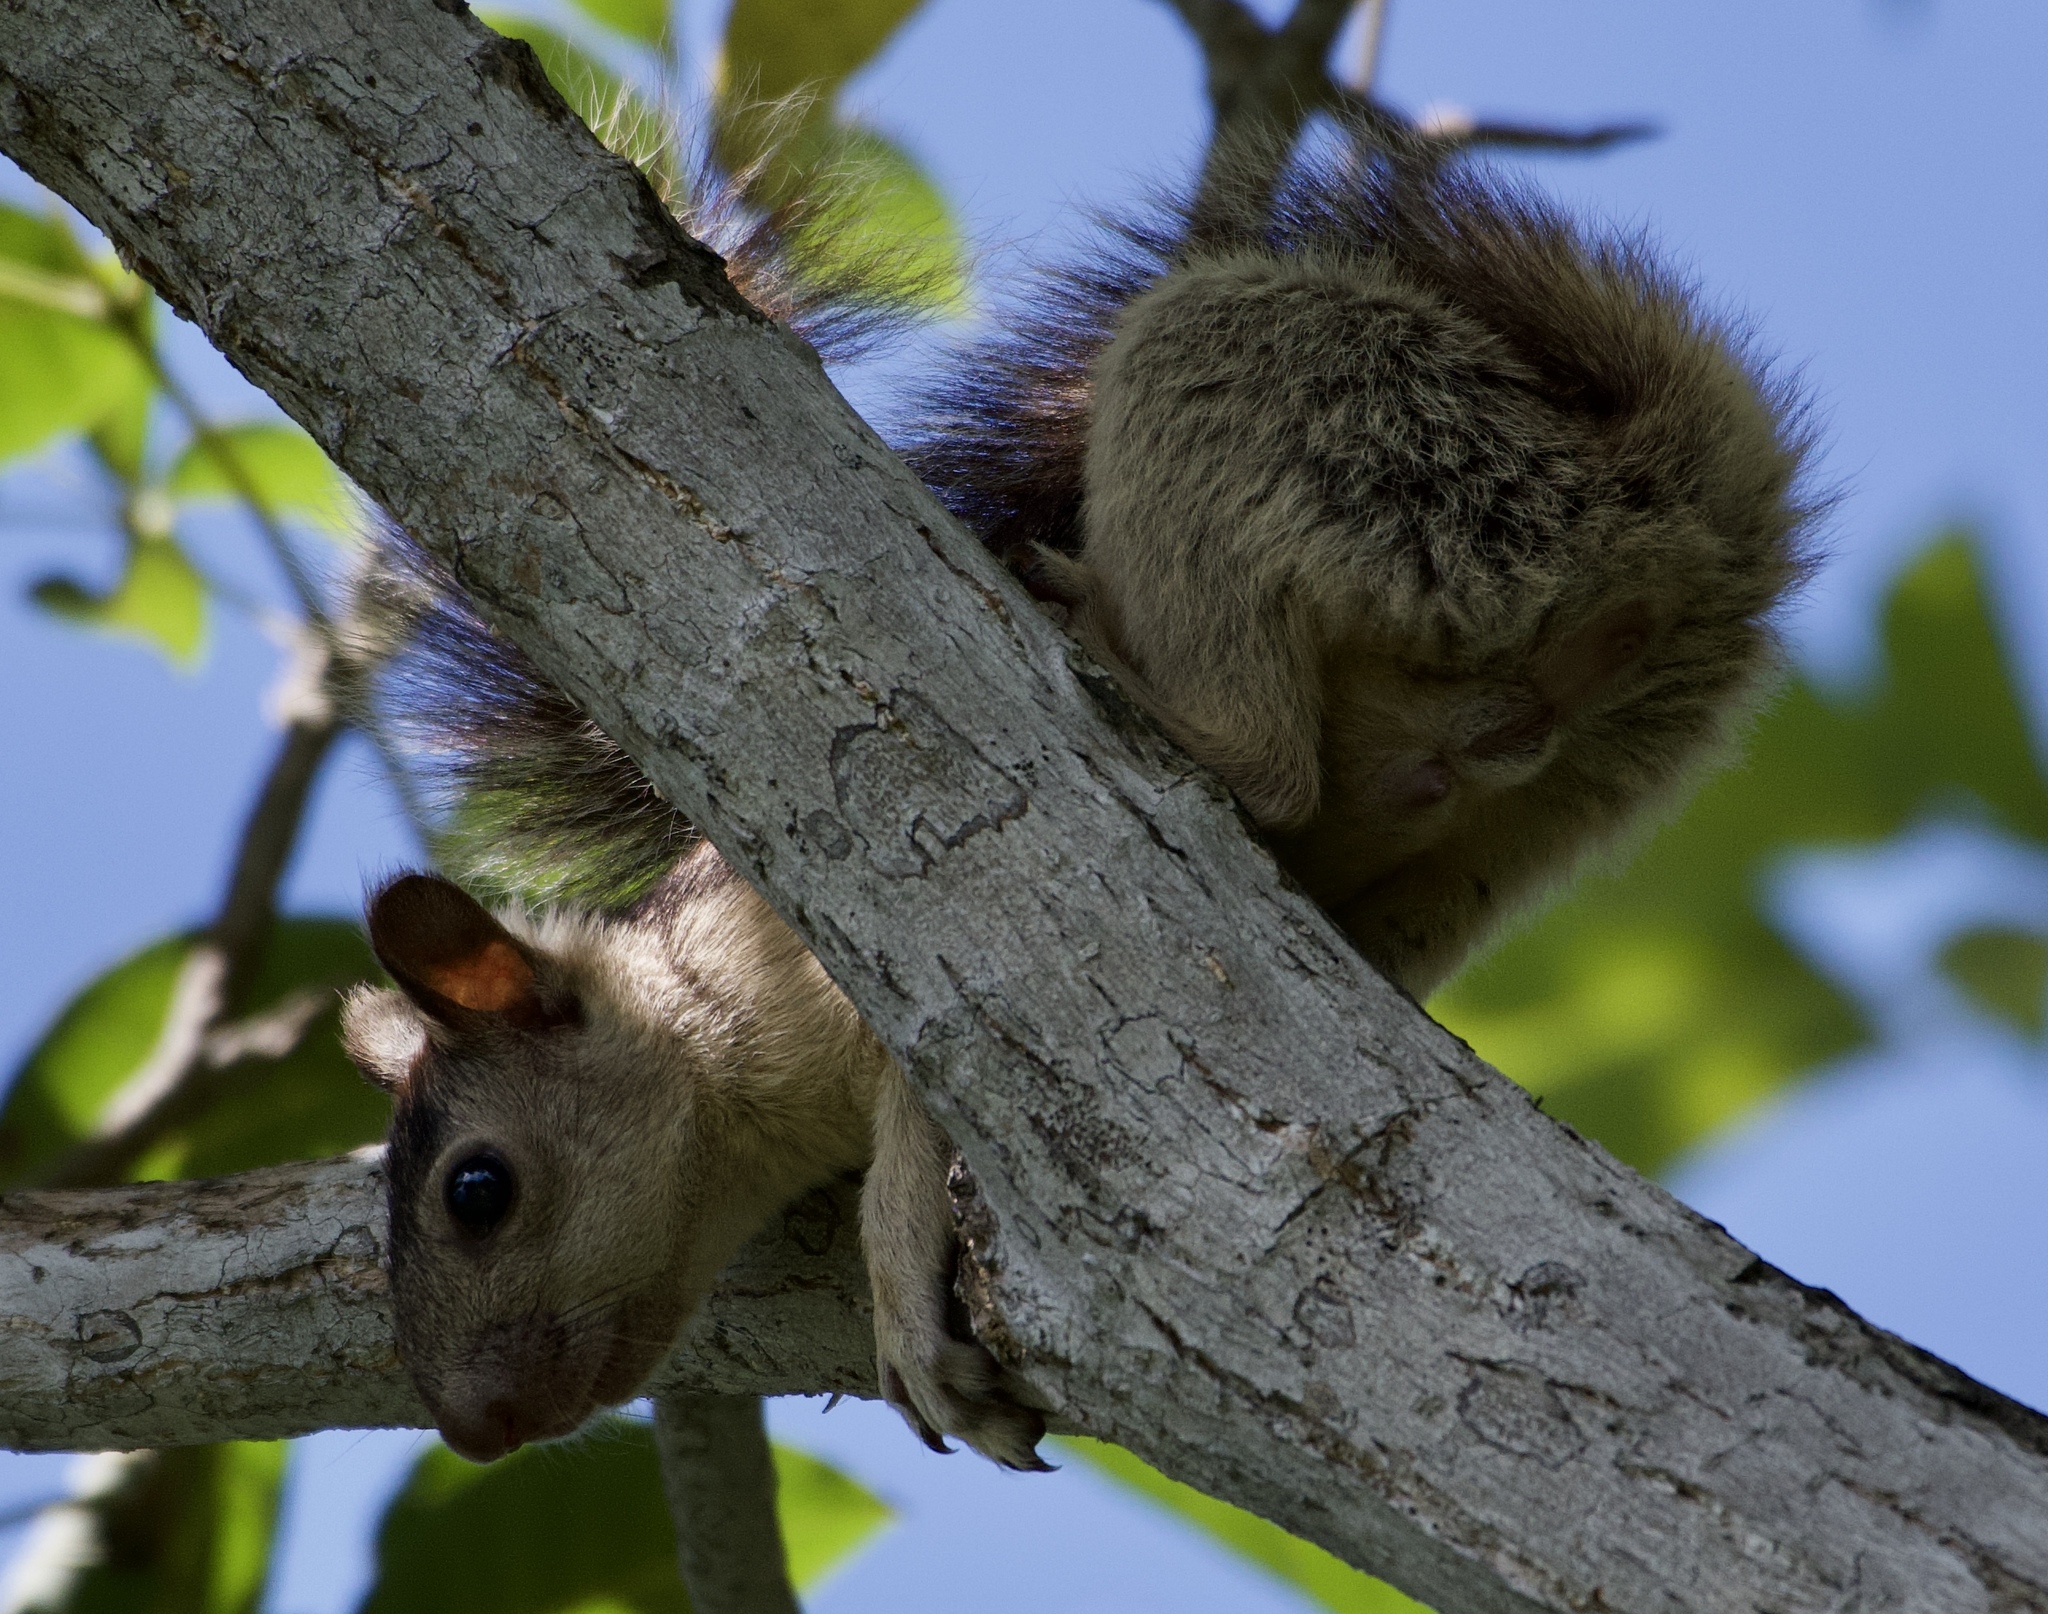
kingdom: Animalia
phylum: Chordata
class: Mammalia
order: Rodentia
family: Sciuridae
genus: Sciurus
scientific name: Sciurus variegatoides
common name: Variegated squirrel
